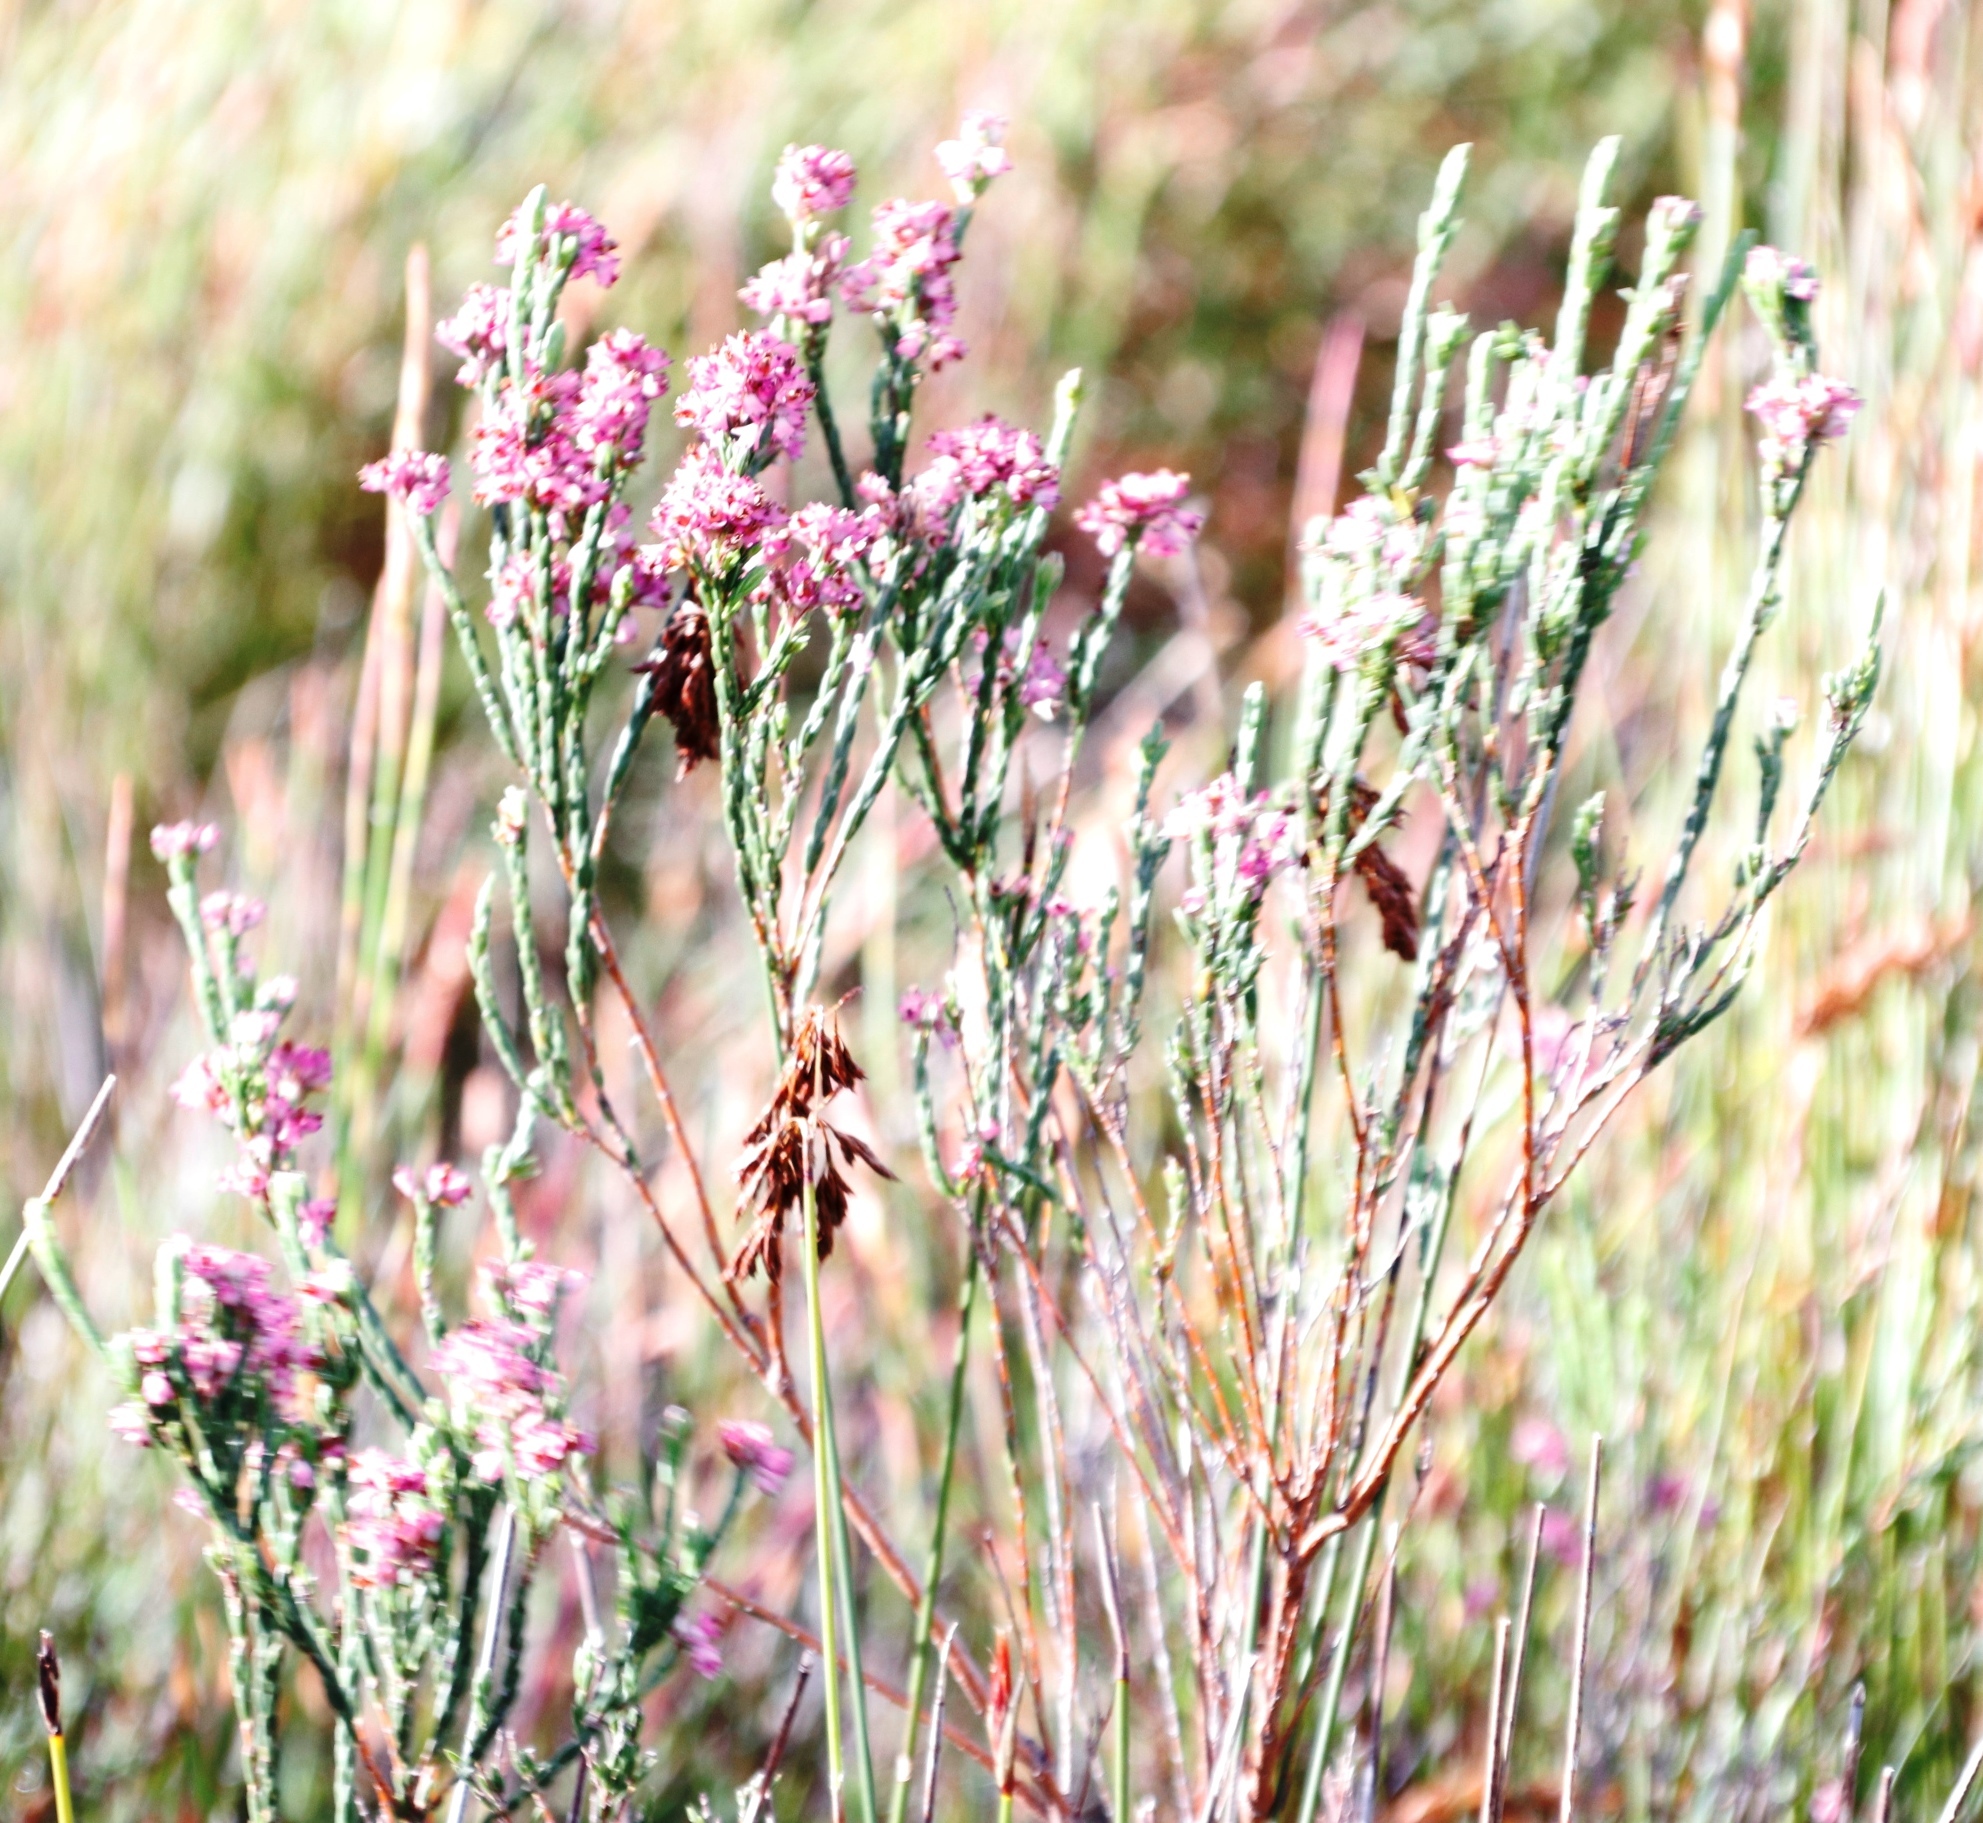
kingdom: Plantae
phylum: Tracheophyta
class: Magnoliopsida
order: Ericales
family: Ericaceae
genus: Erica
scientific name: Erica corifolia
